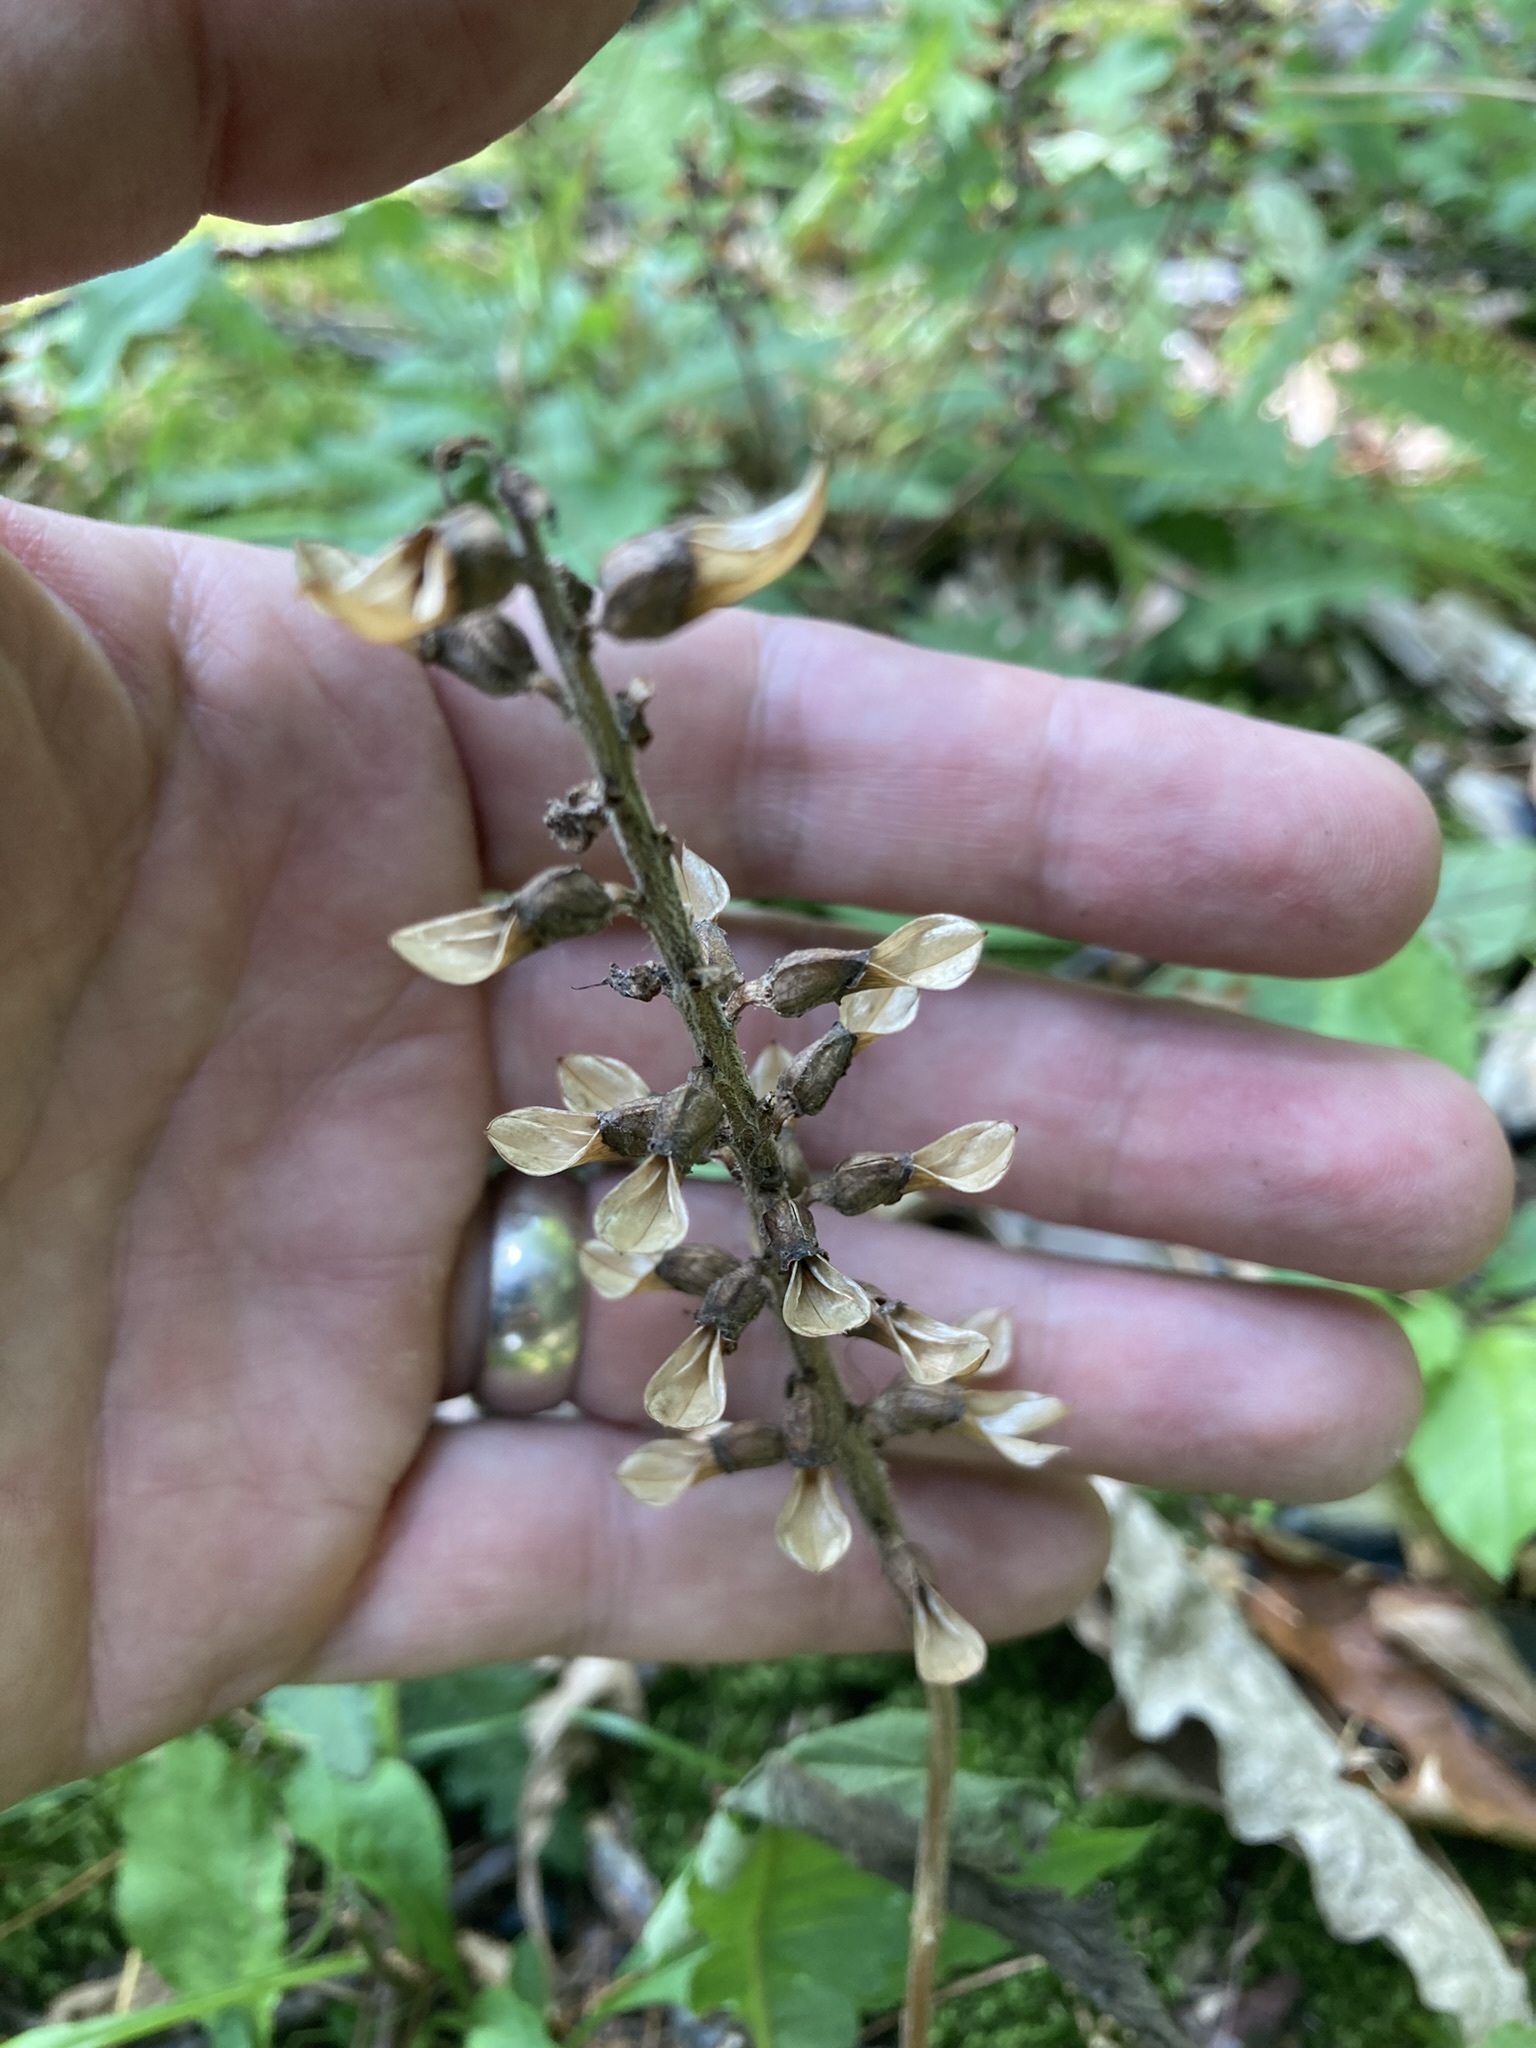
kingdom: Plantae
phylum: Tracheophyta
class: Magnoliopsida
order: Lamiales
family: Orobanchaceae
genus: Pedicularis
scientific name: Pedicularis canadensis
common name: Early lousewort
